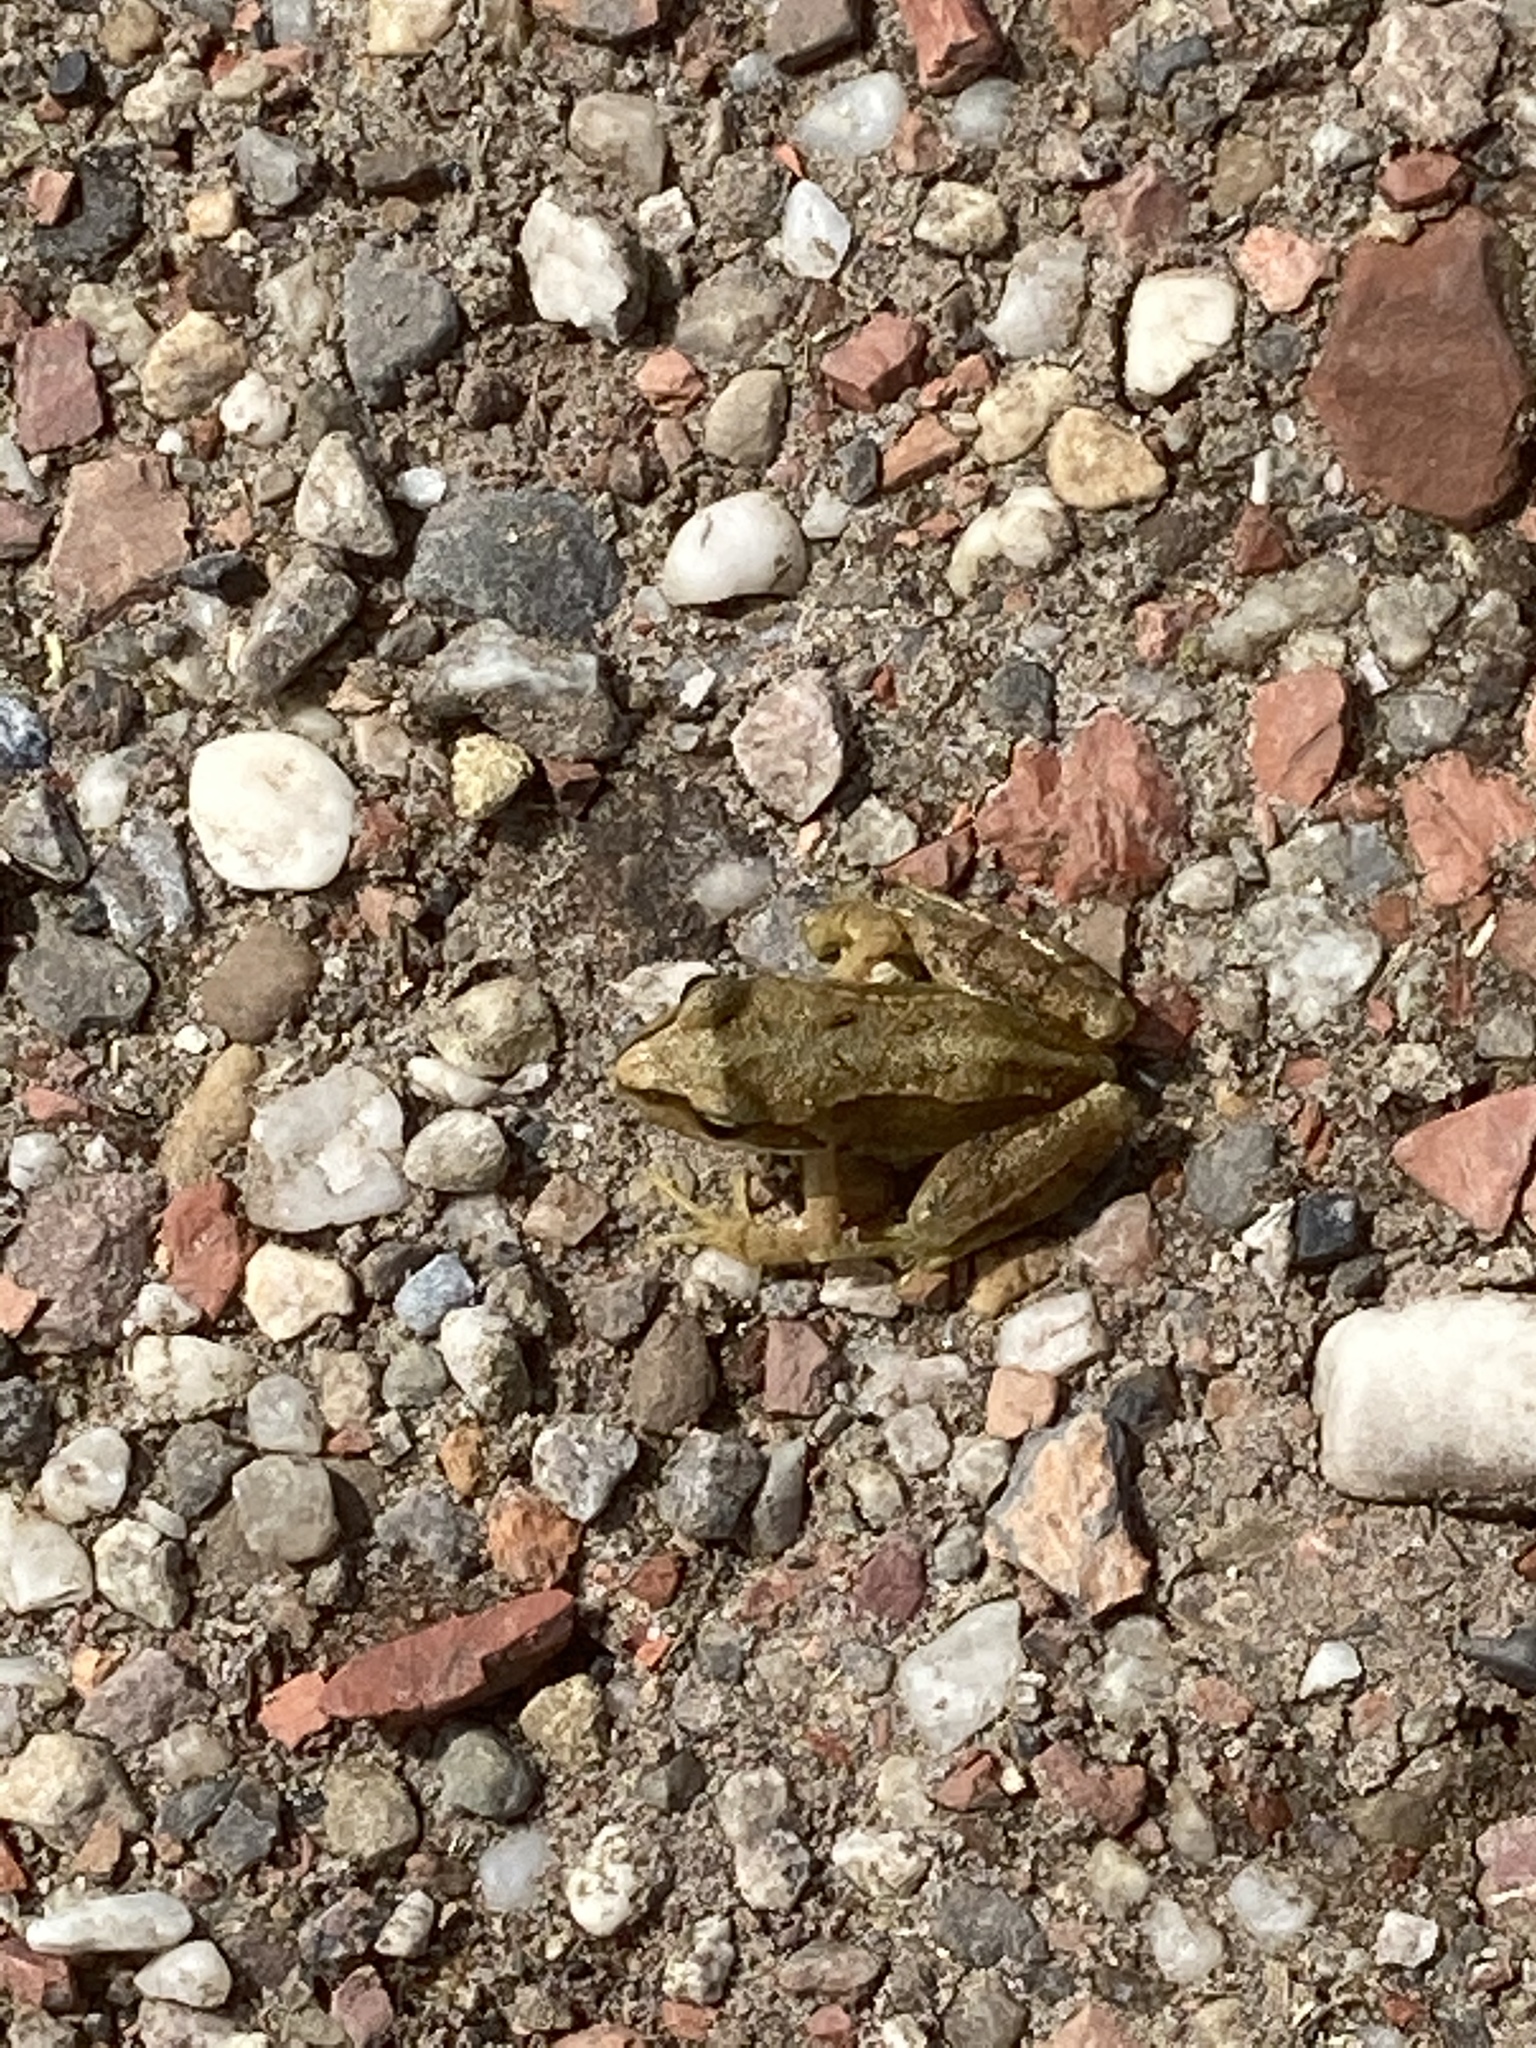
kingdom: Animalia
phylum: Chordata
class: Amphibia
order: Anura
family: Ranidae
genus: Rana
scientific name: Rana temporaria
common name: Common frog
